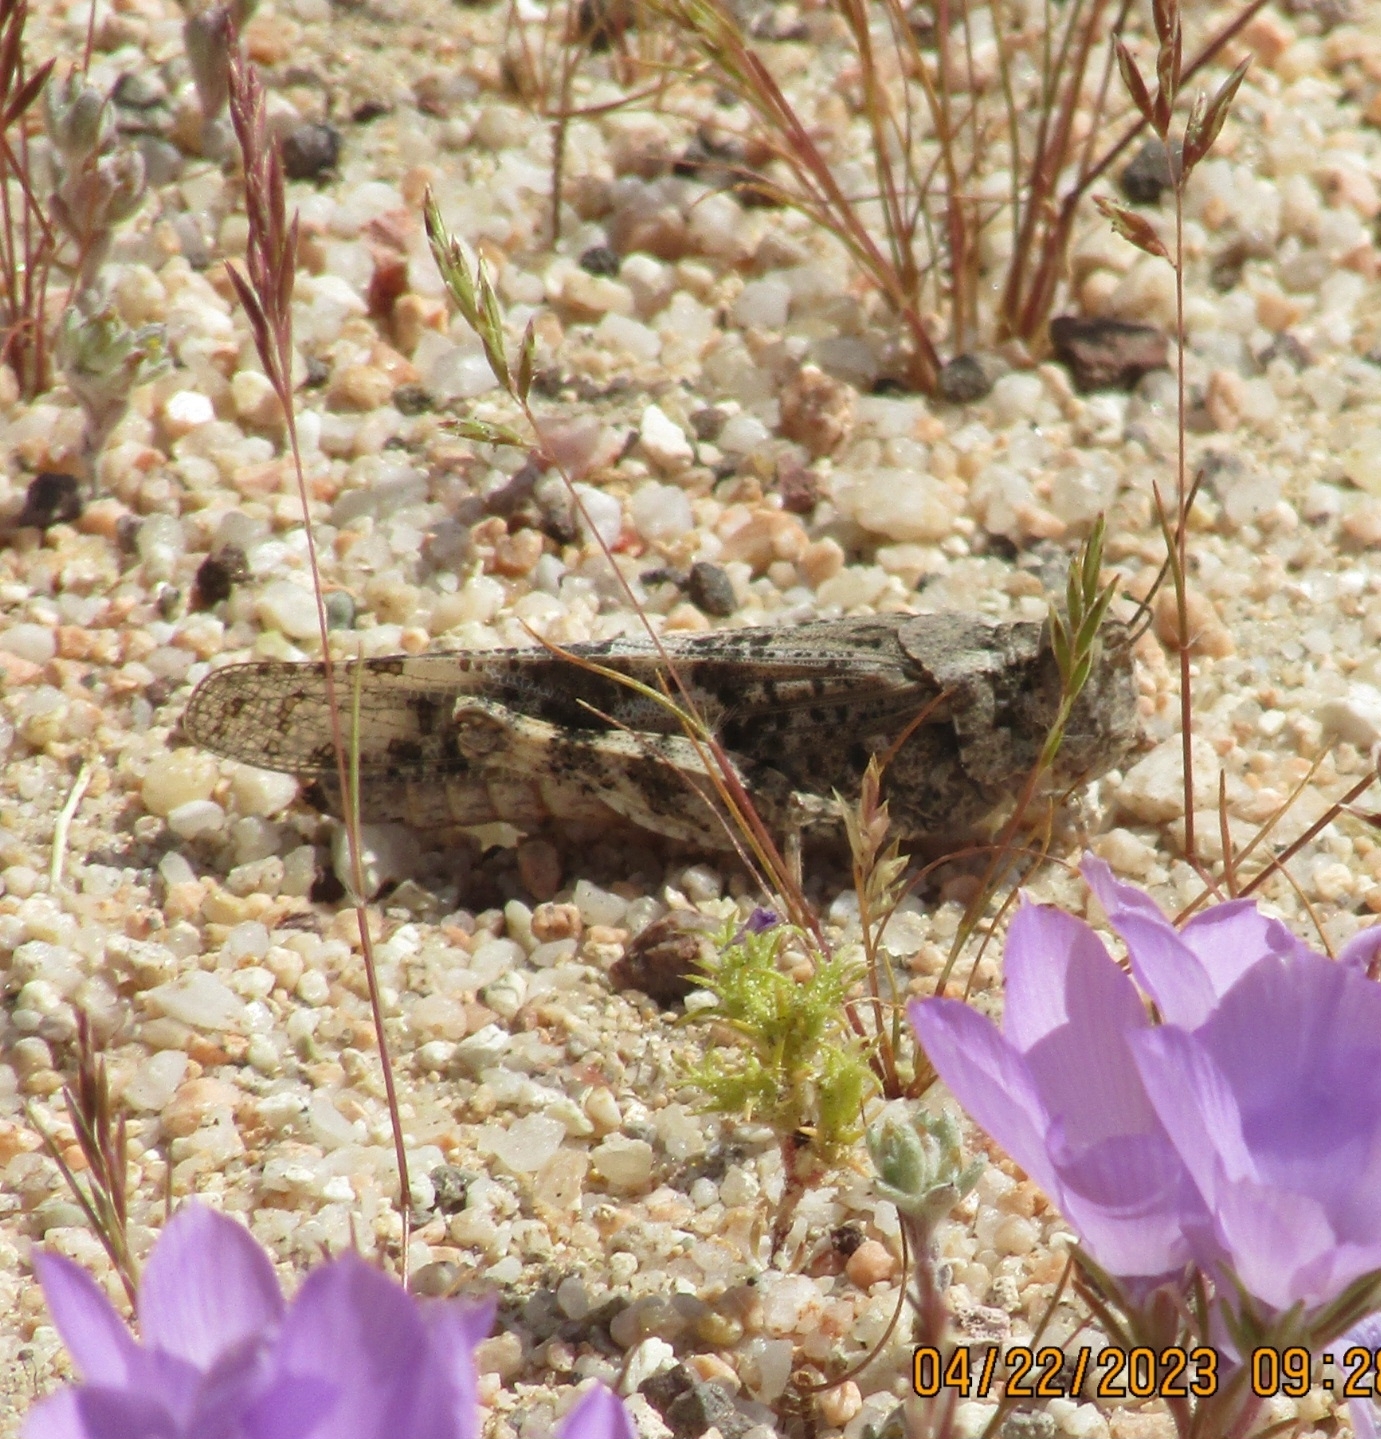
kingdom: Animalia
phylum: Arthropoda
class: Insecta
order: Orthoptera
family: Acrididae
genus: Trimerotropis
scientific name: Trimerotropis pallidipennis
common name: Pallid-winged grasshopper
